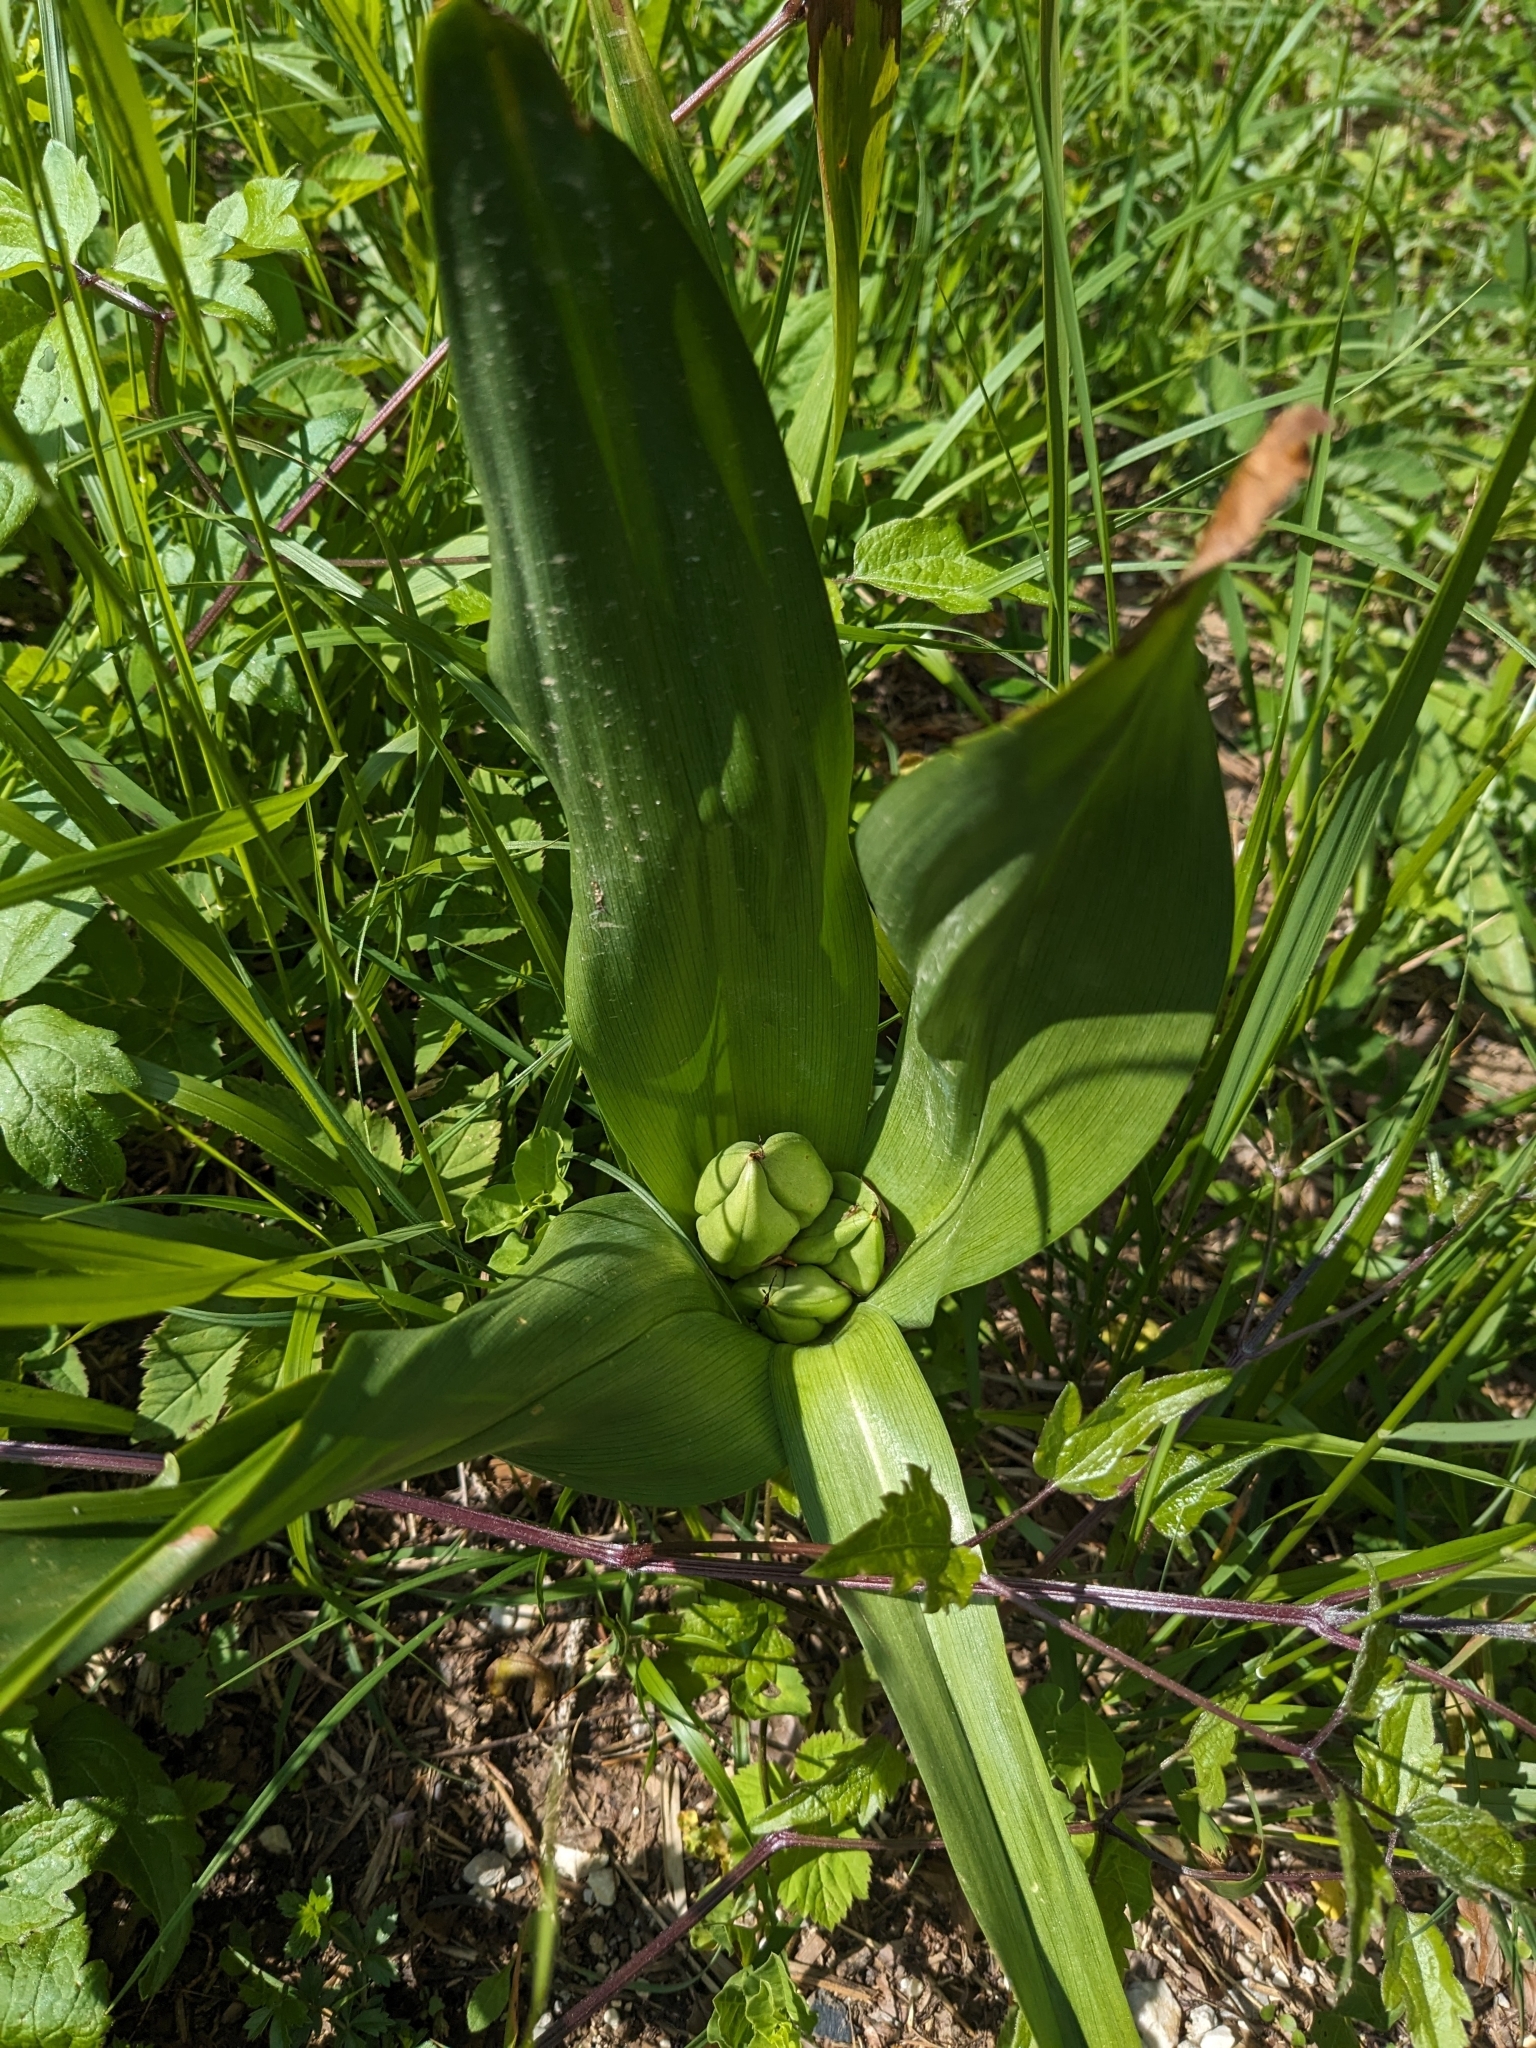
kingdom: Plantae
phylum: Tracheophyta
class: Liliopsida
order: Liliales
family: Colchicaceae
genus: Colchicum
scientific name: Colchicum autumnale
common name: Autumn crocus
